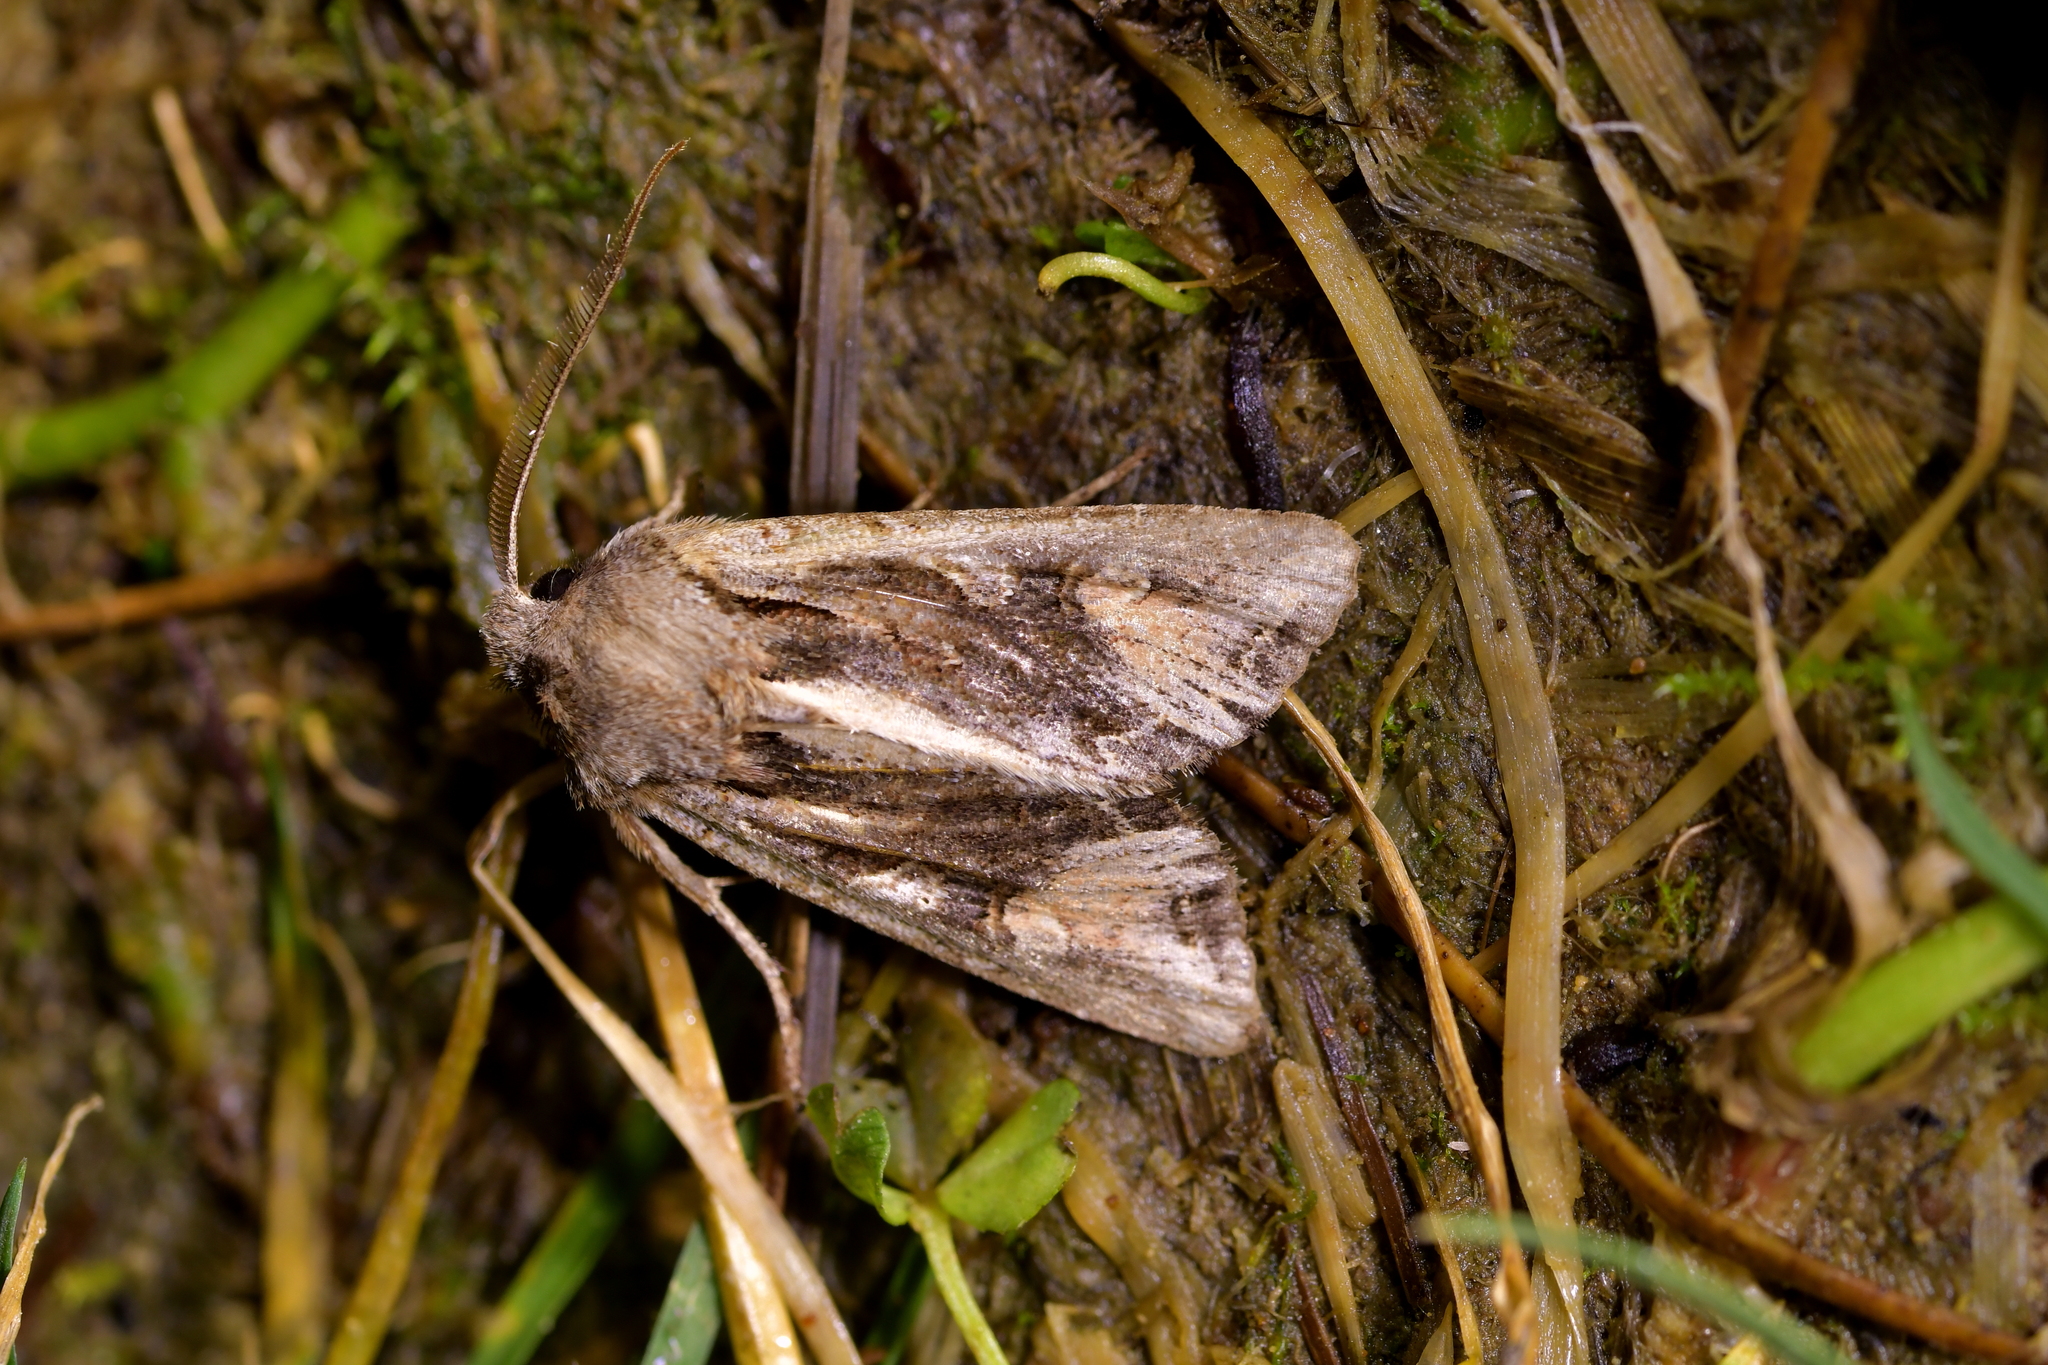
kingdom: Animalia
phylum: Arthropoda
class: Insecta
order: Lepidoptera
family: Noctuidae
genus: Ichneutica
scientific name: Ichneutica
